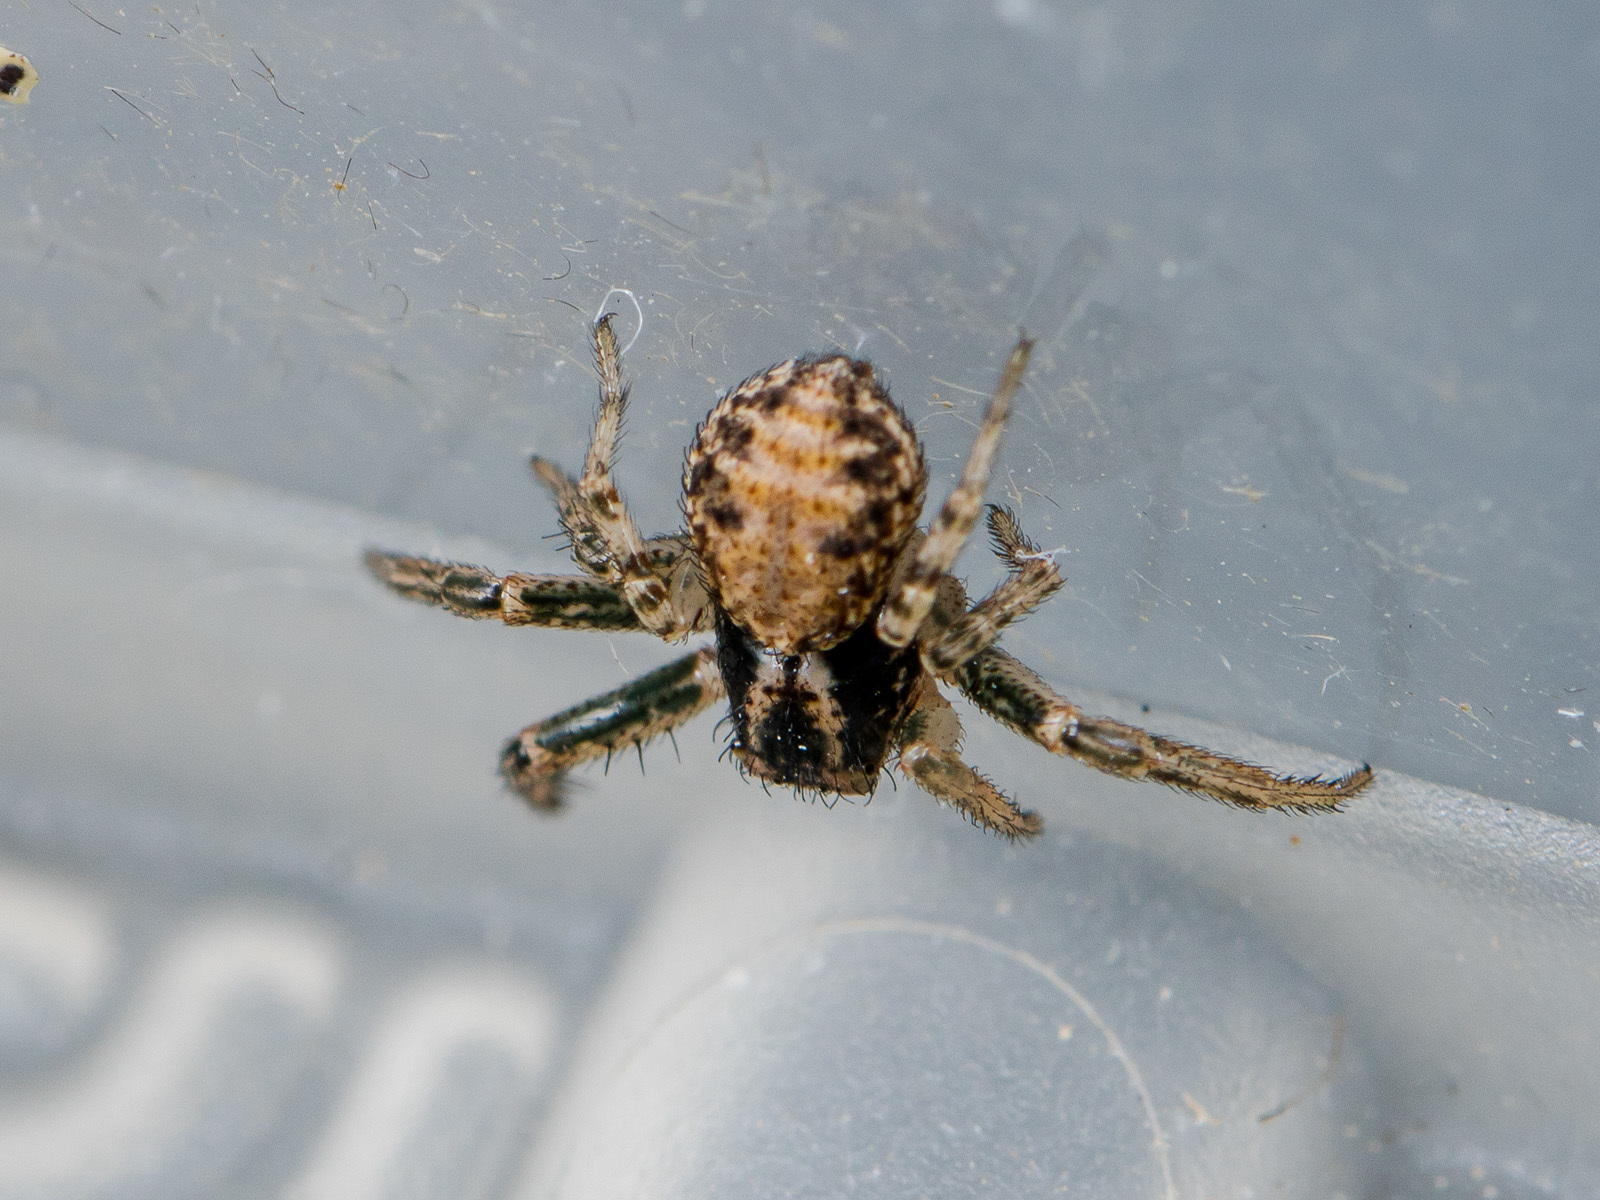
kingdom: Animalia
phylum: Arthropoda
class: Arachnida
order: Araneae
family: Thomisidae
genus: Psammitis
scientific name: Psammitis minor
